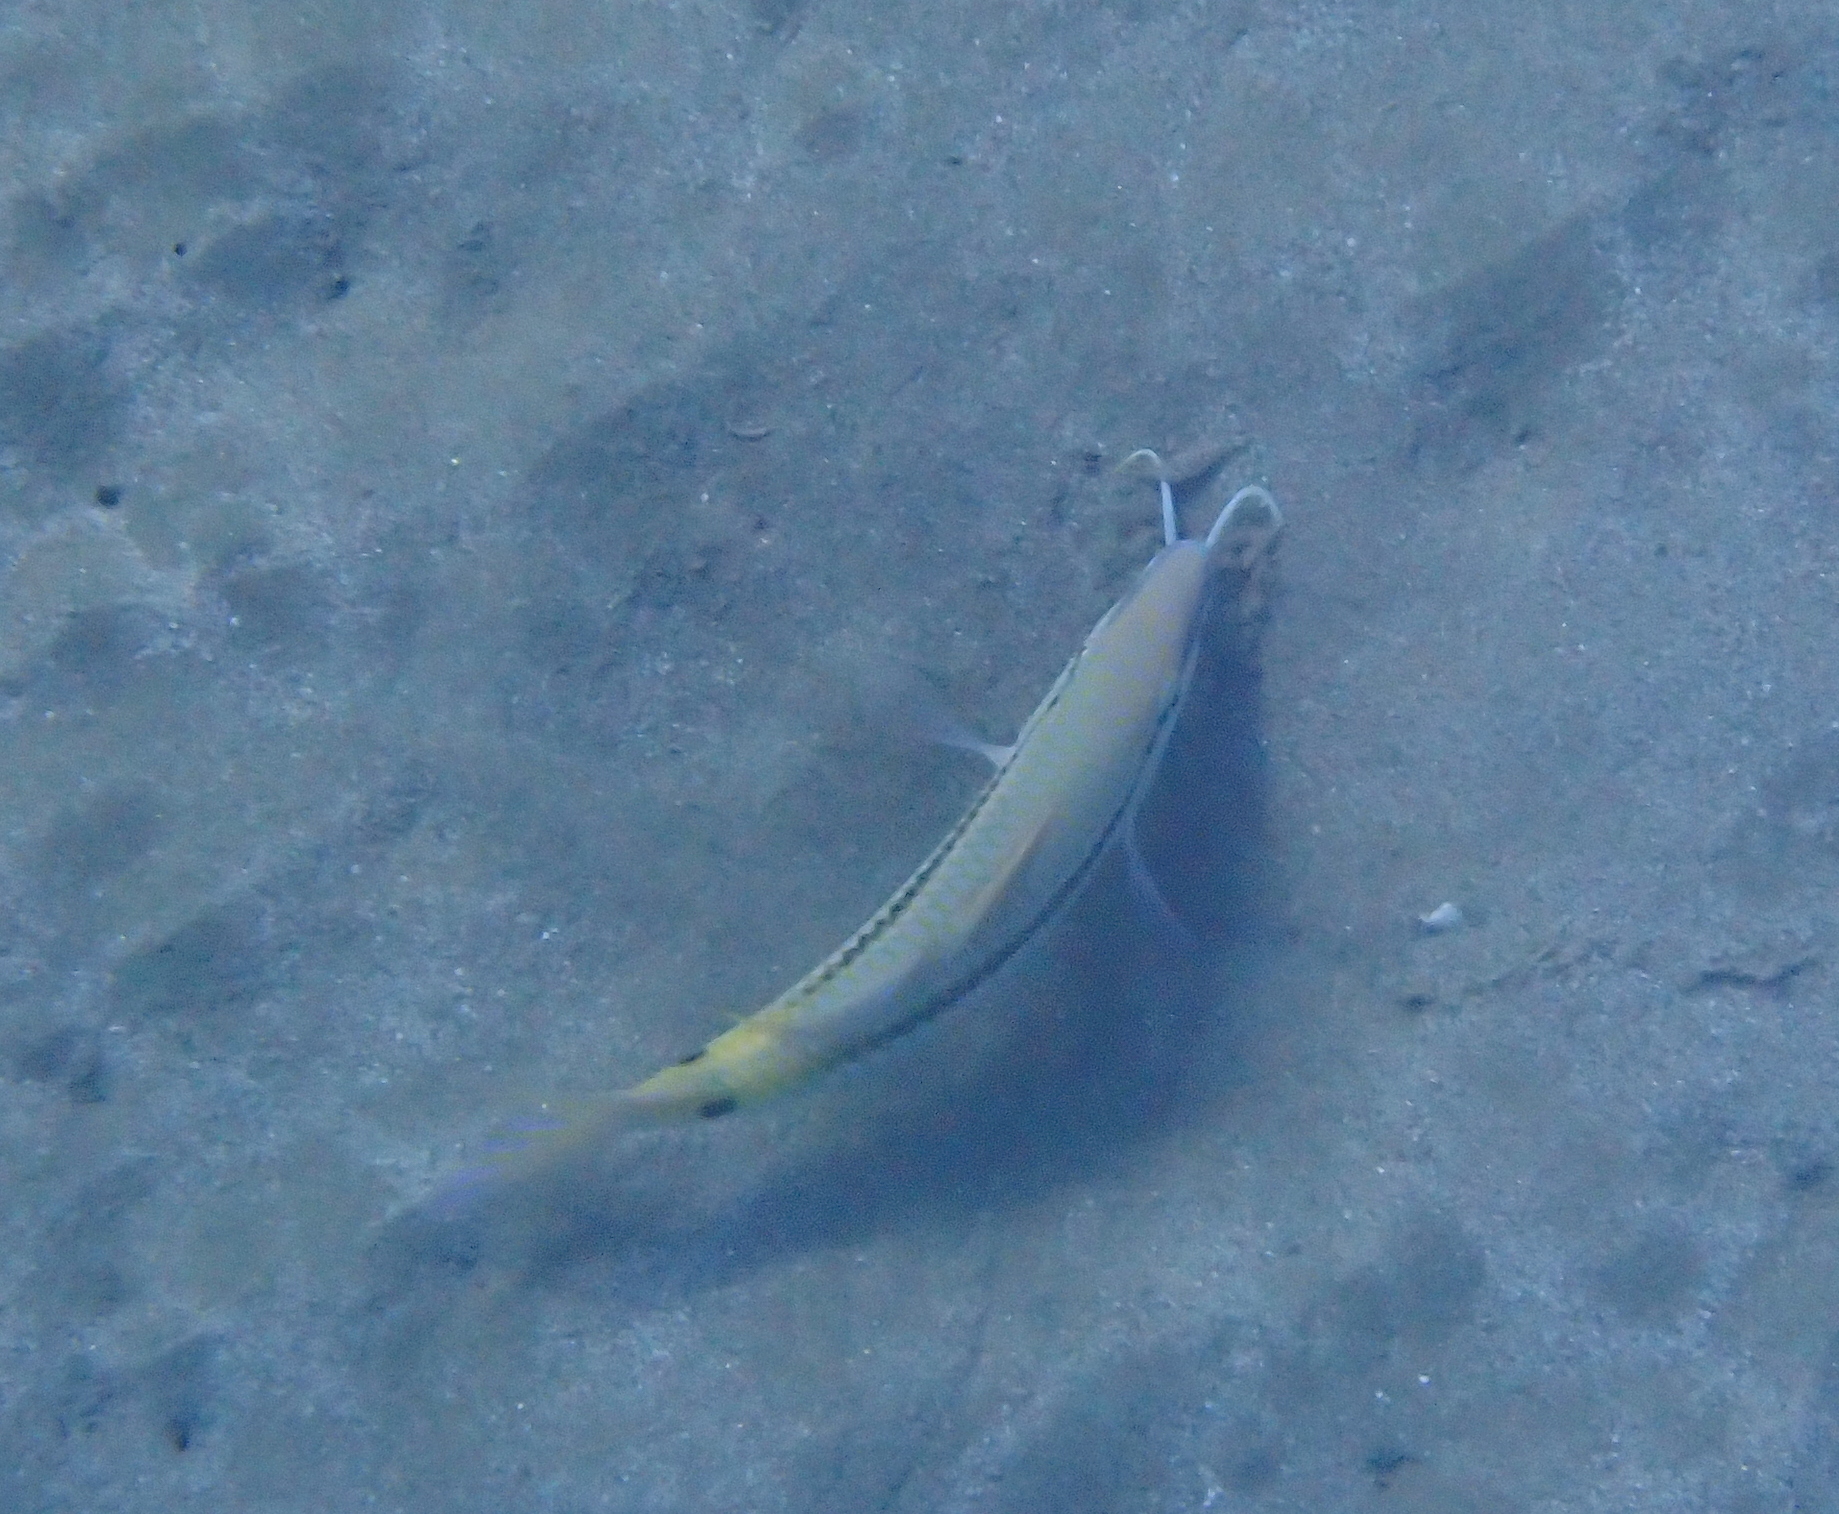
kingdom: Animalia
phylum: Chordata
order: Perciformes
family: Mullidae
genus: Parupeneus
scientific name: Parupeneus forsskali
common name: Red sea goatfish
